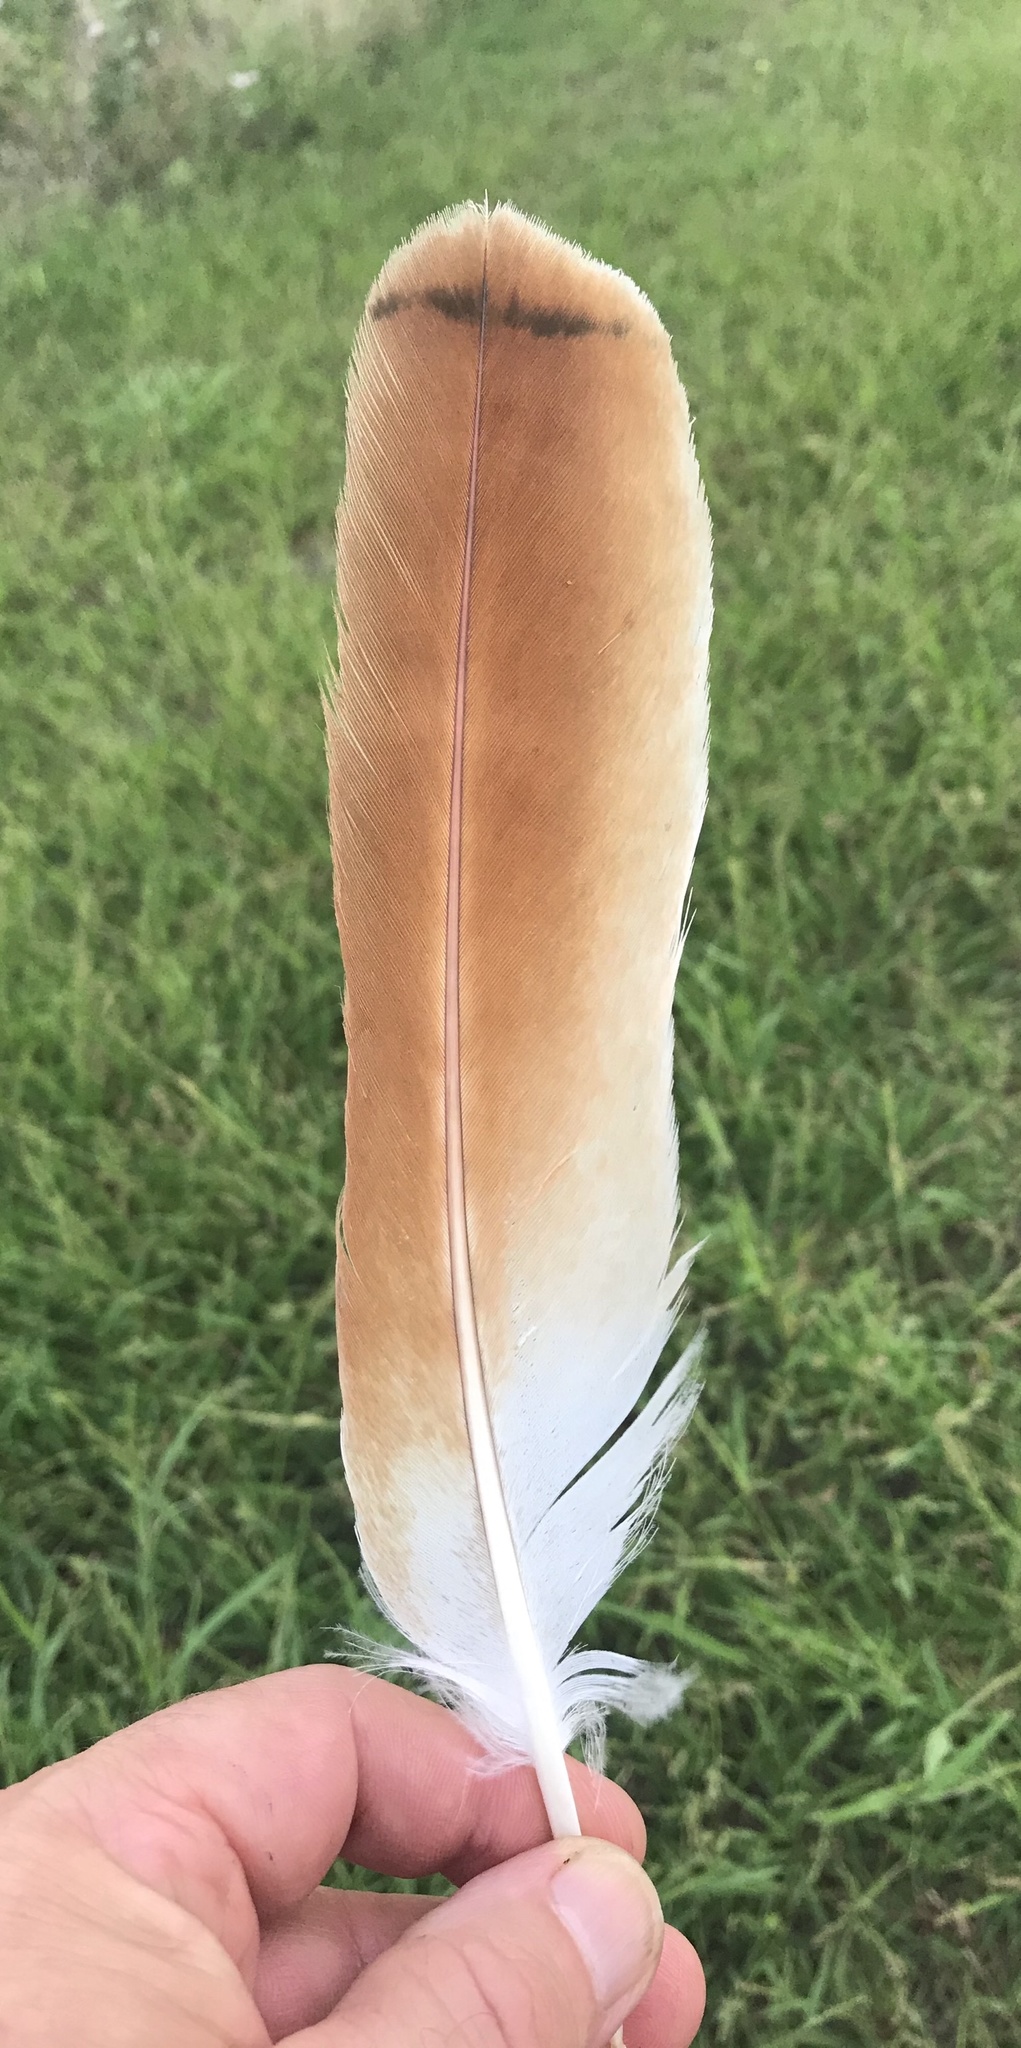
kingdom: Animalia
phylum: Chordata
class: Aves
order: Accipitriformes
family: Accipitridae
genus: Buteo
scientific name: Buteo jamaicensis
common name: Red-tailed hawk
